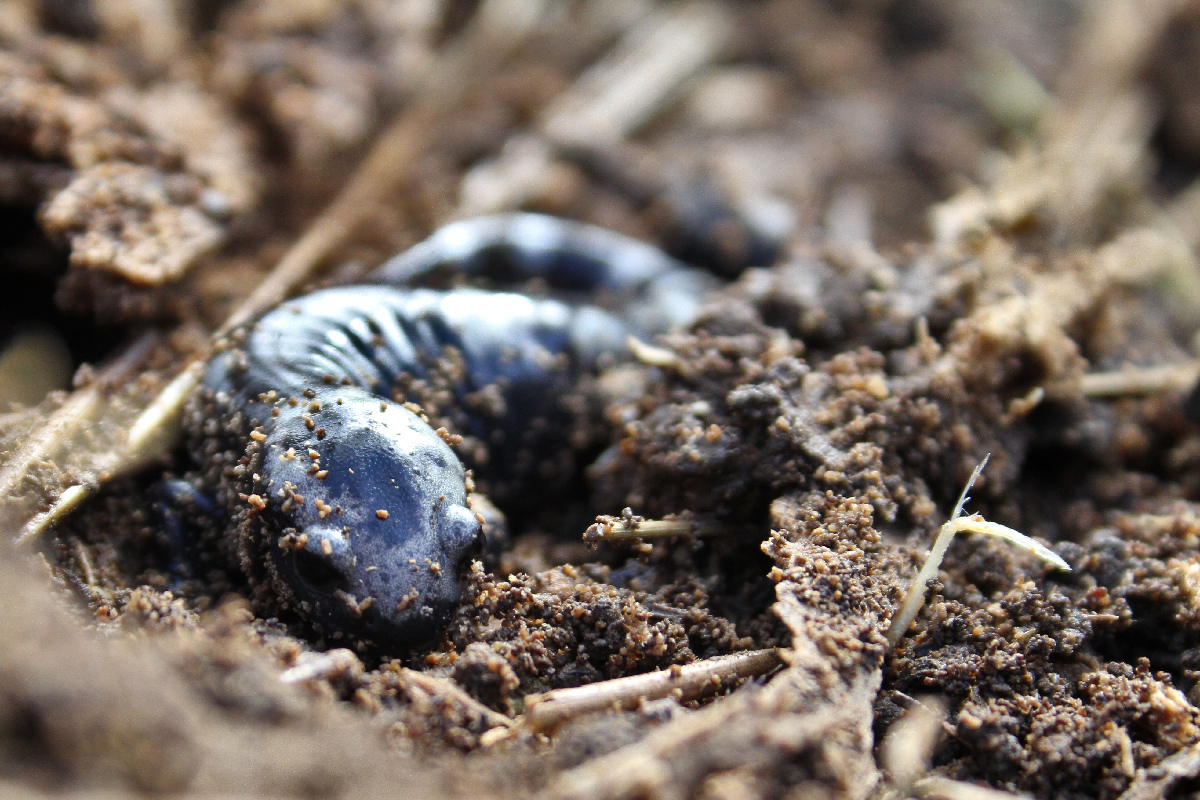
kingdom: Animalia
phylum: Chordata
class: Amphibia
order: Caudata
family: Ambystomatidae
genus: Ambystoma
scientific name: Ambystoma opacum
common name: Marbled salamander
